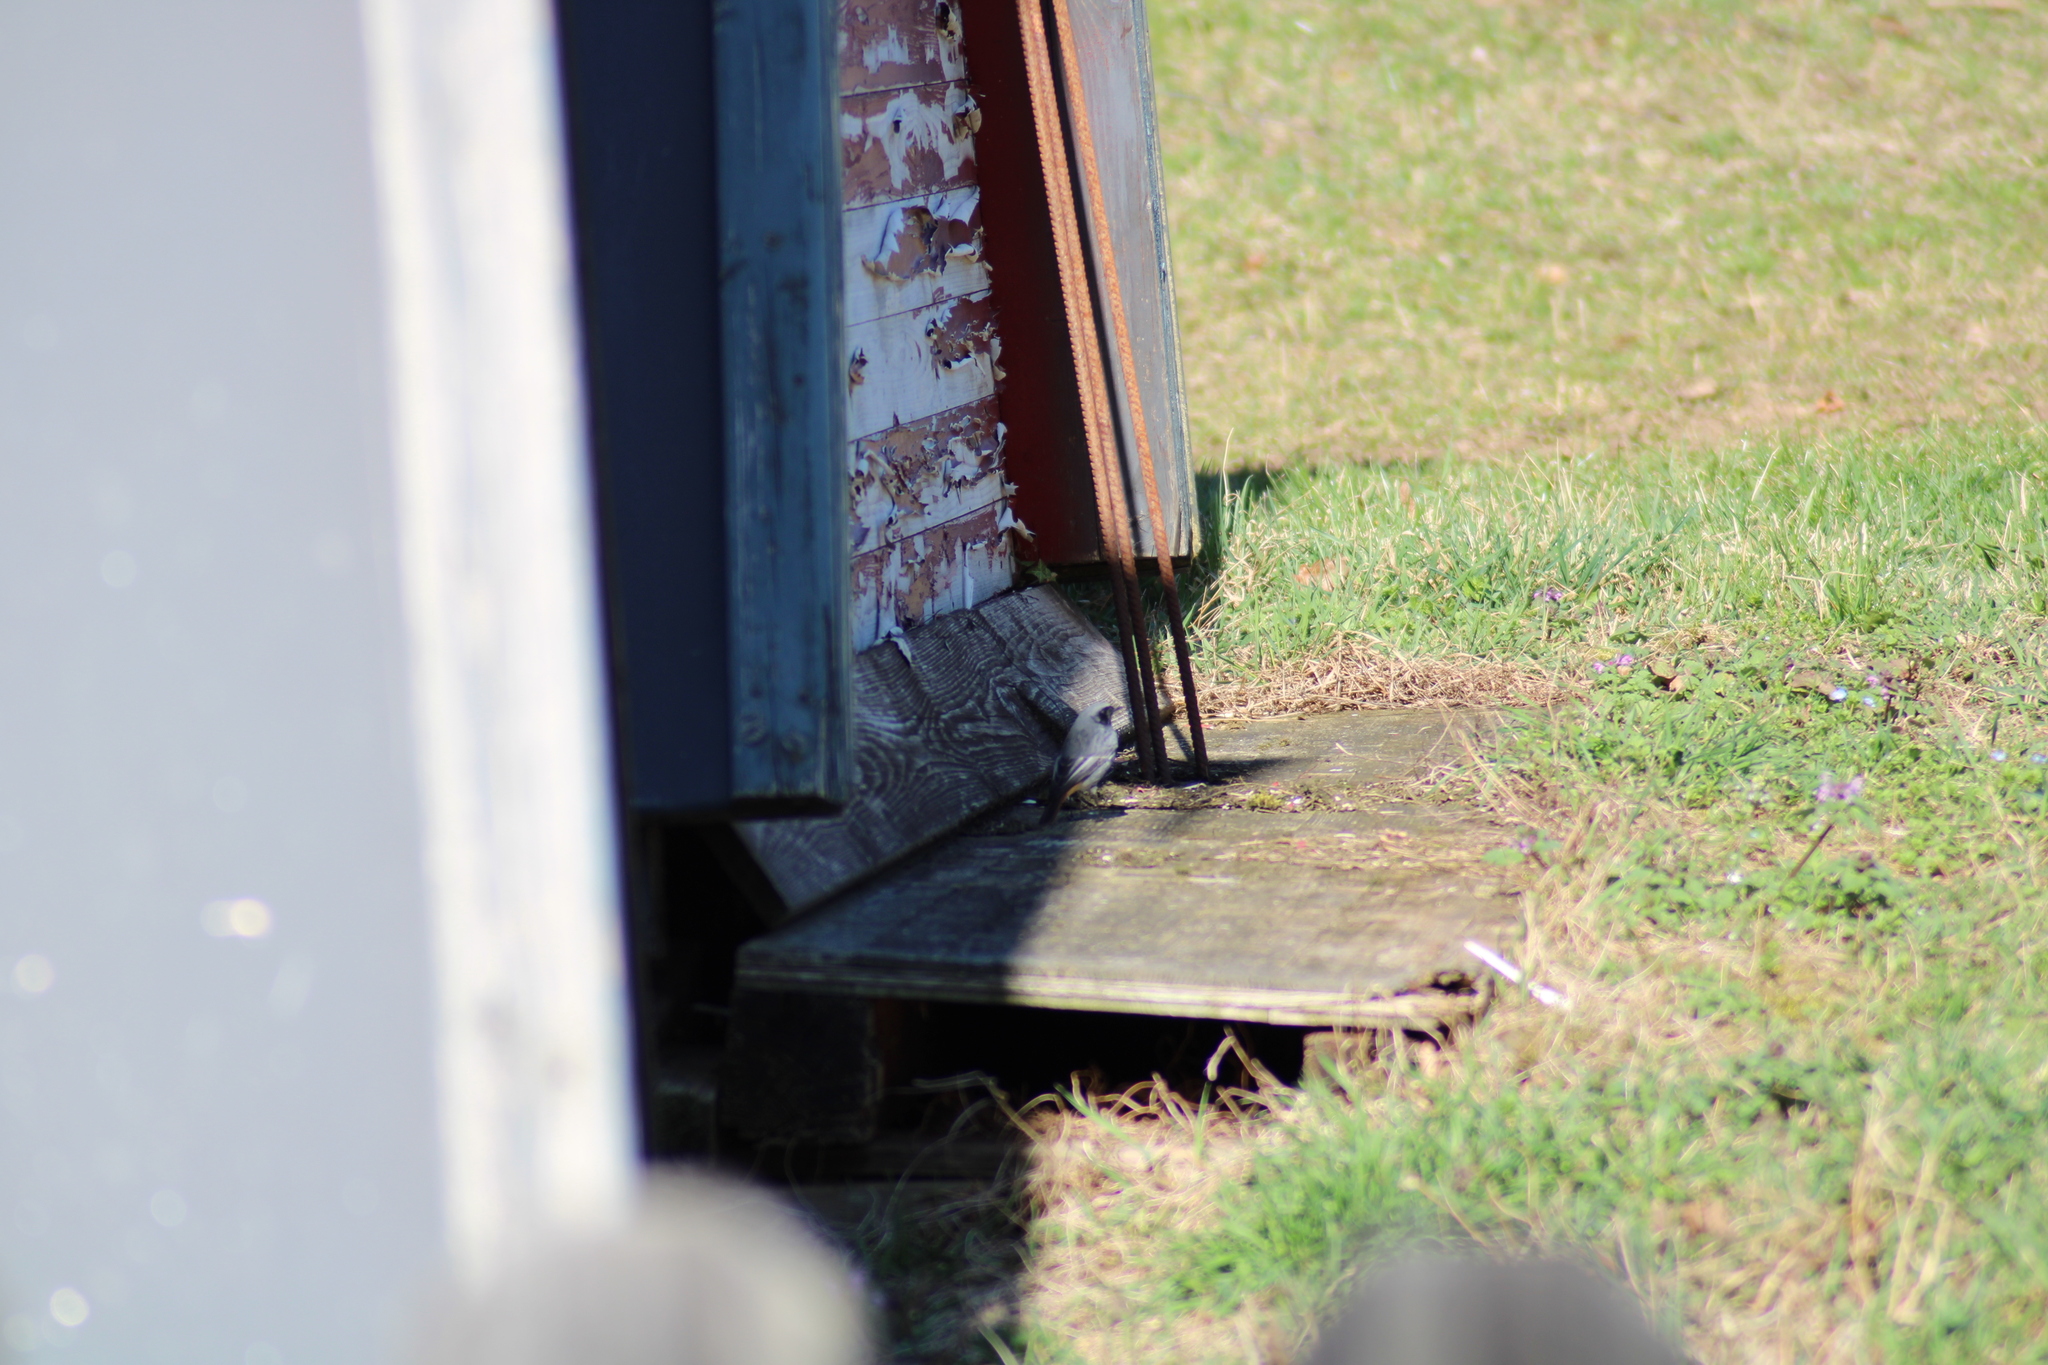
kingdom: Animalia
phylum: Chordata
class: Aves
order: Passeriformes
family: Muscicapidae
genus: Phoenicurus
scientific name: Phoenicurus ochruros
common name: Black redstart
